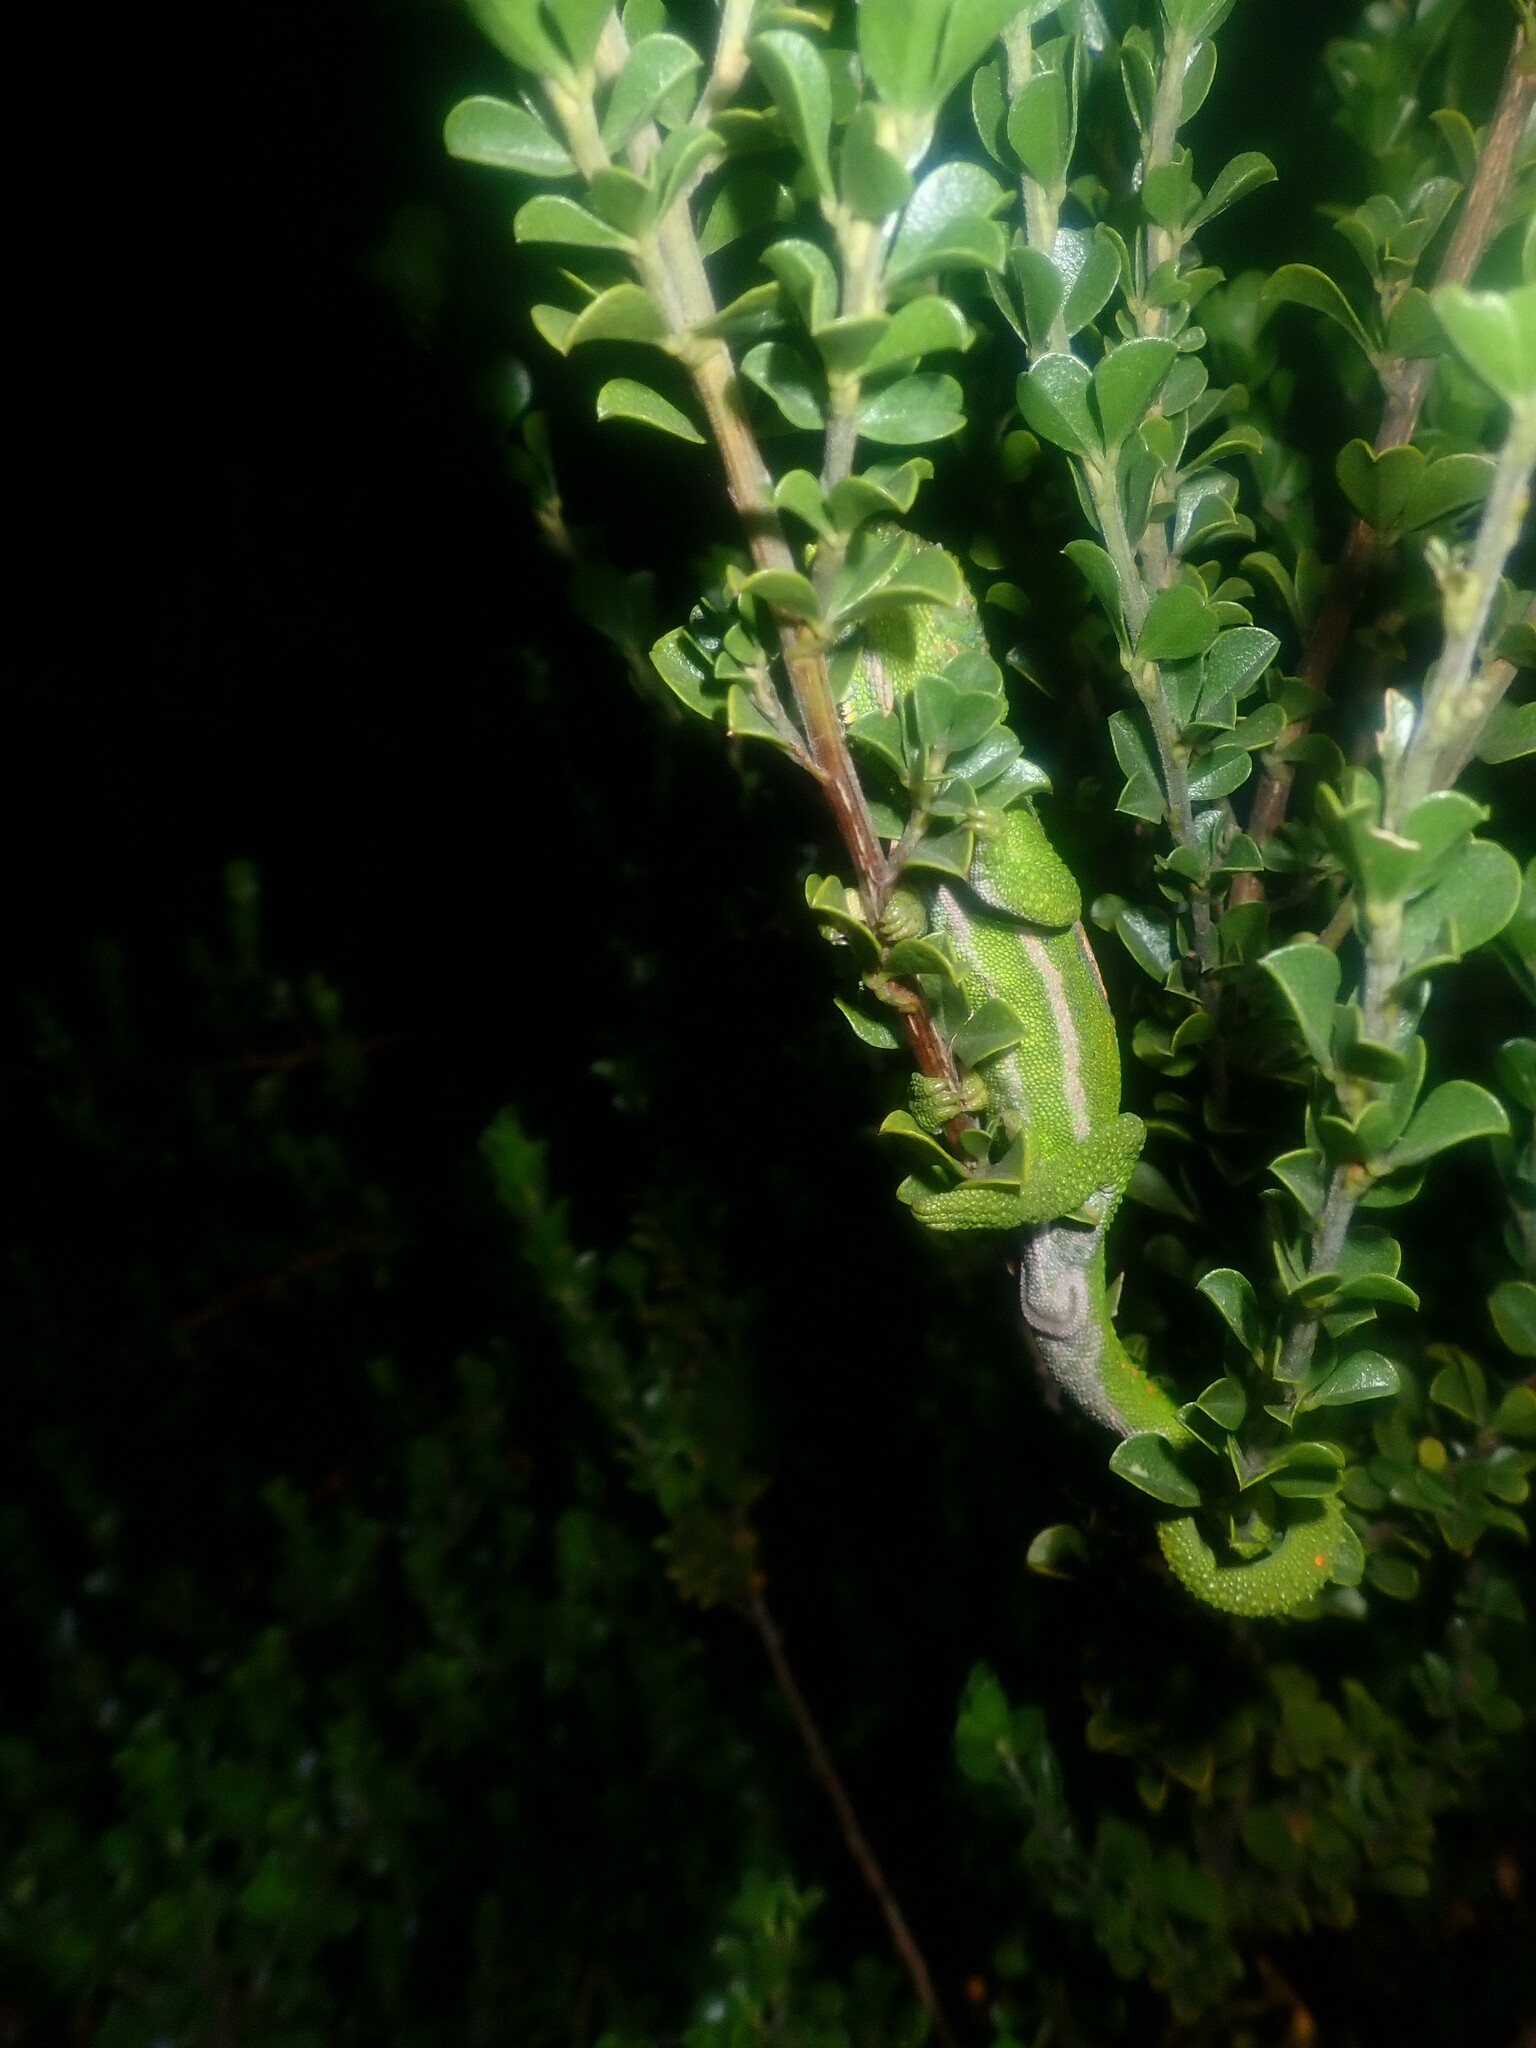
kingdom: Animalia
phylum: Chordata
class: Squamata
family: Chamaeleonidae
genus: Bradypodion
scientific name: Bradypodion pumilum
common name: Cape dwarf chameleon
